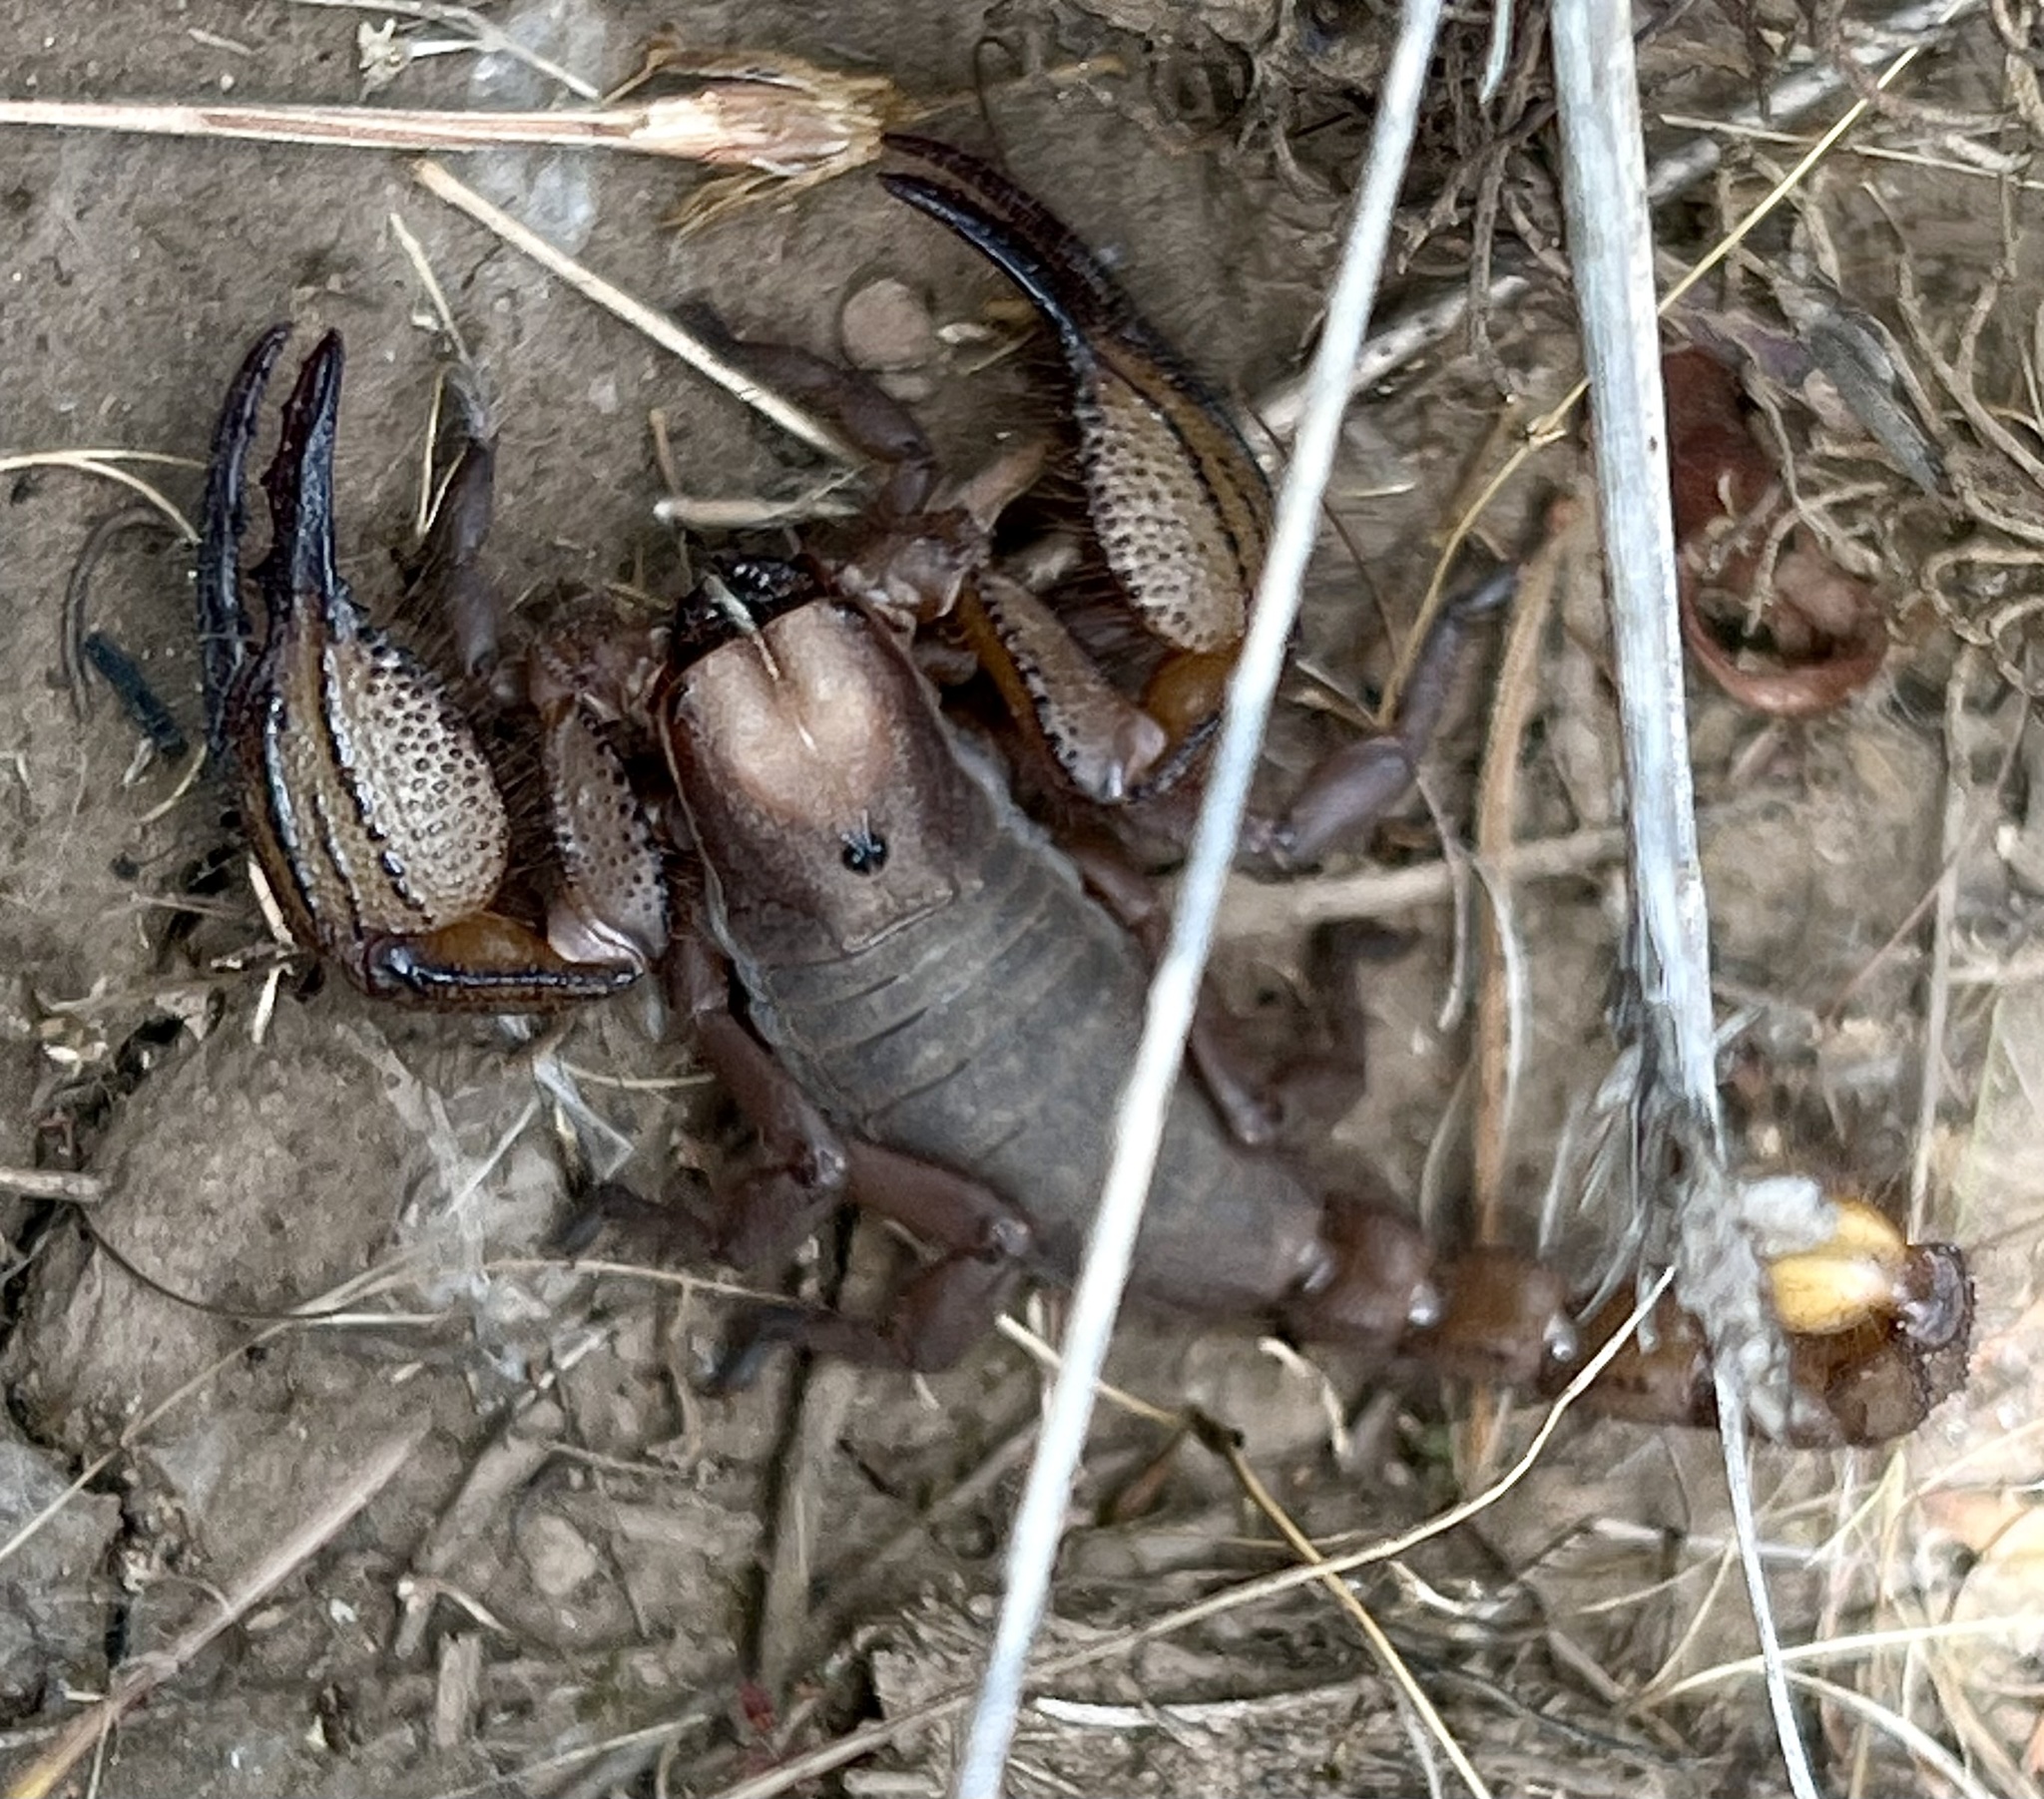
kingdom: Animalia
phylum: Arthropoda
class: Arachnida
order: Scorpiones
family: Scorpionidae
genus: Opistophthalmus
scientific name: Opistophthalmus macer
